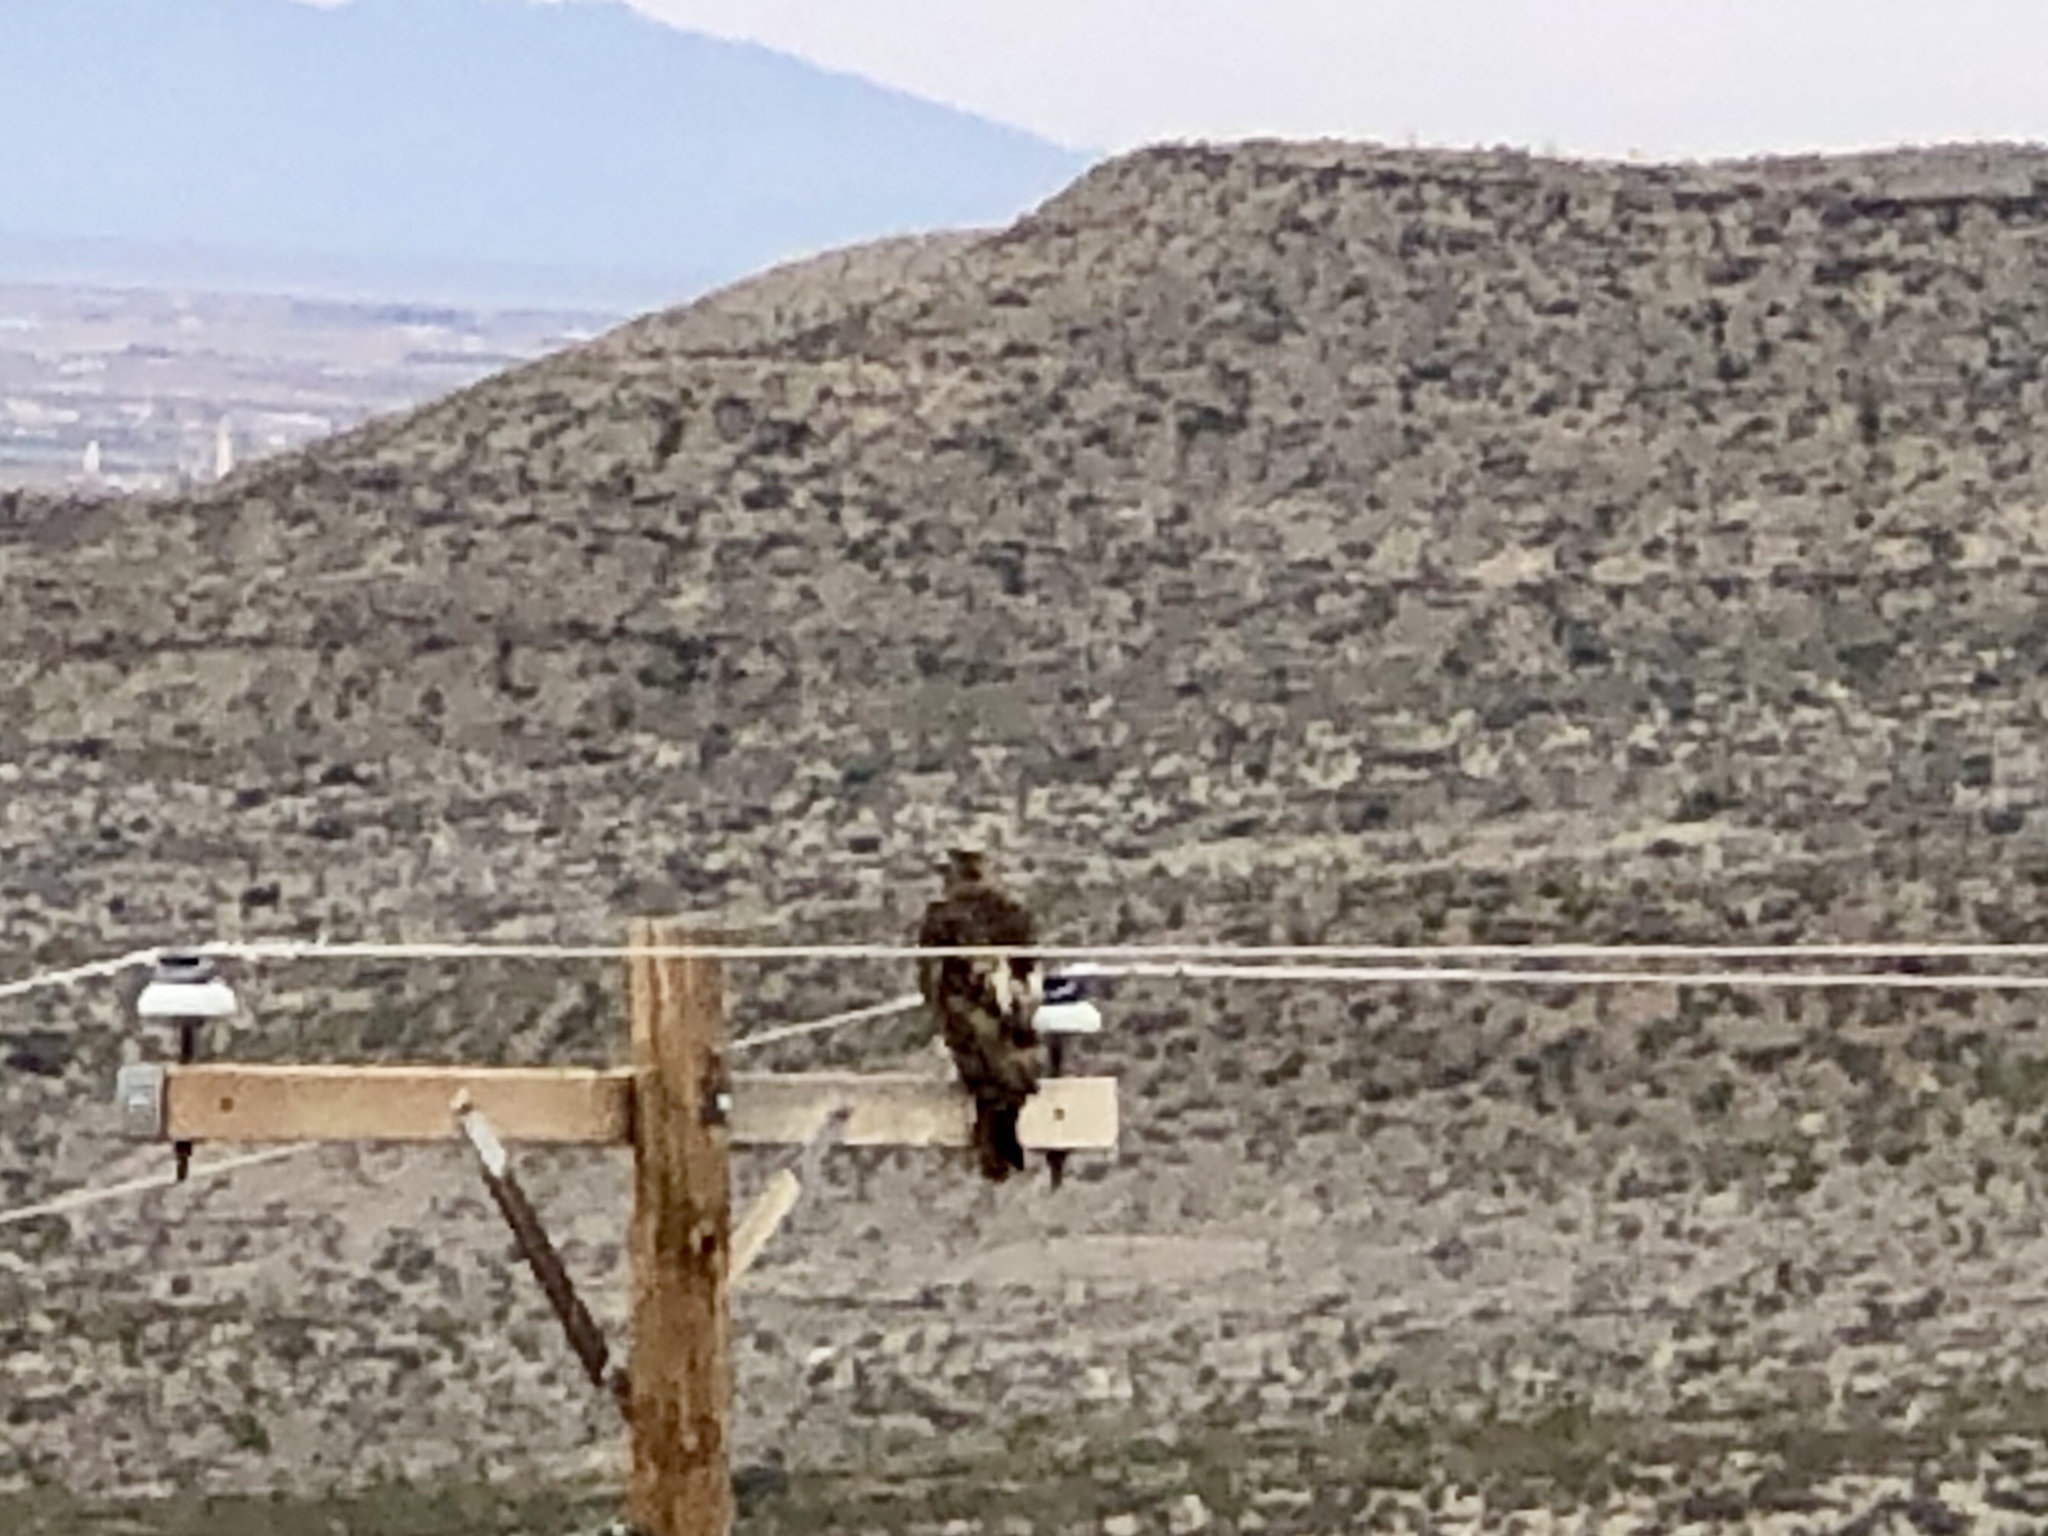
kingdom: Animalia
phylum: Chordata
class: Aves
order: Accipitriformes
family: Accipitridae
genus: Buteo
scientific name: Buteo jamaicensis
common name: Red-tailed hawk
